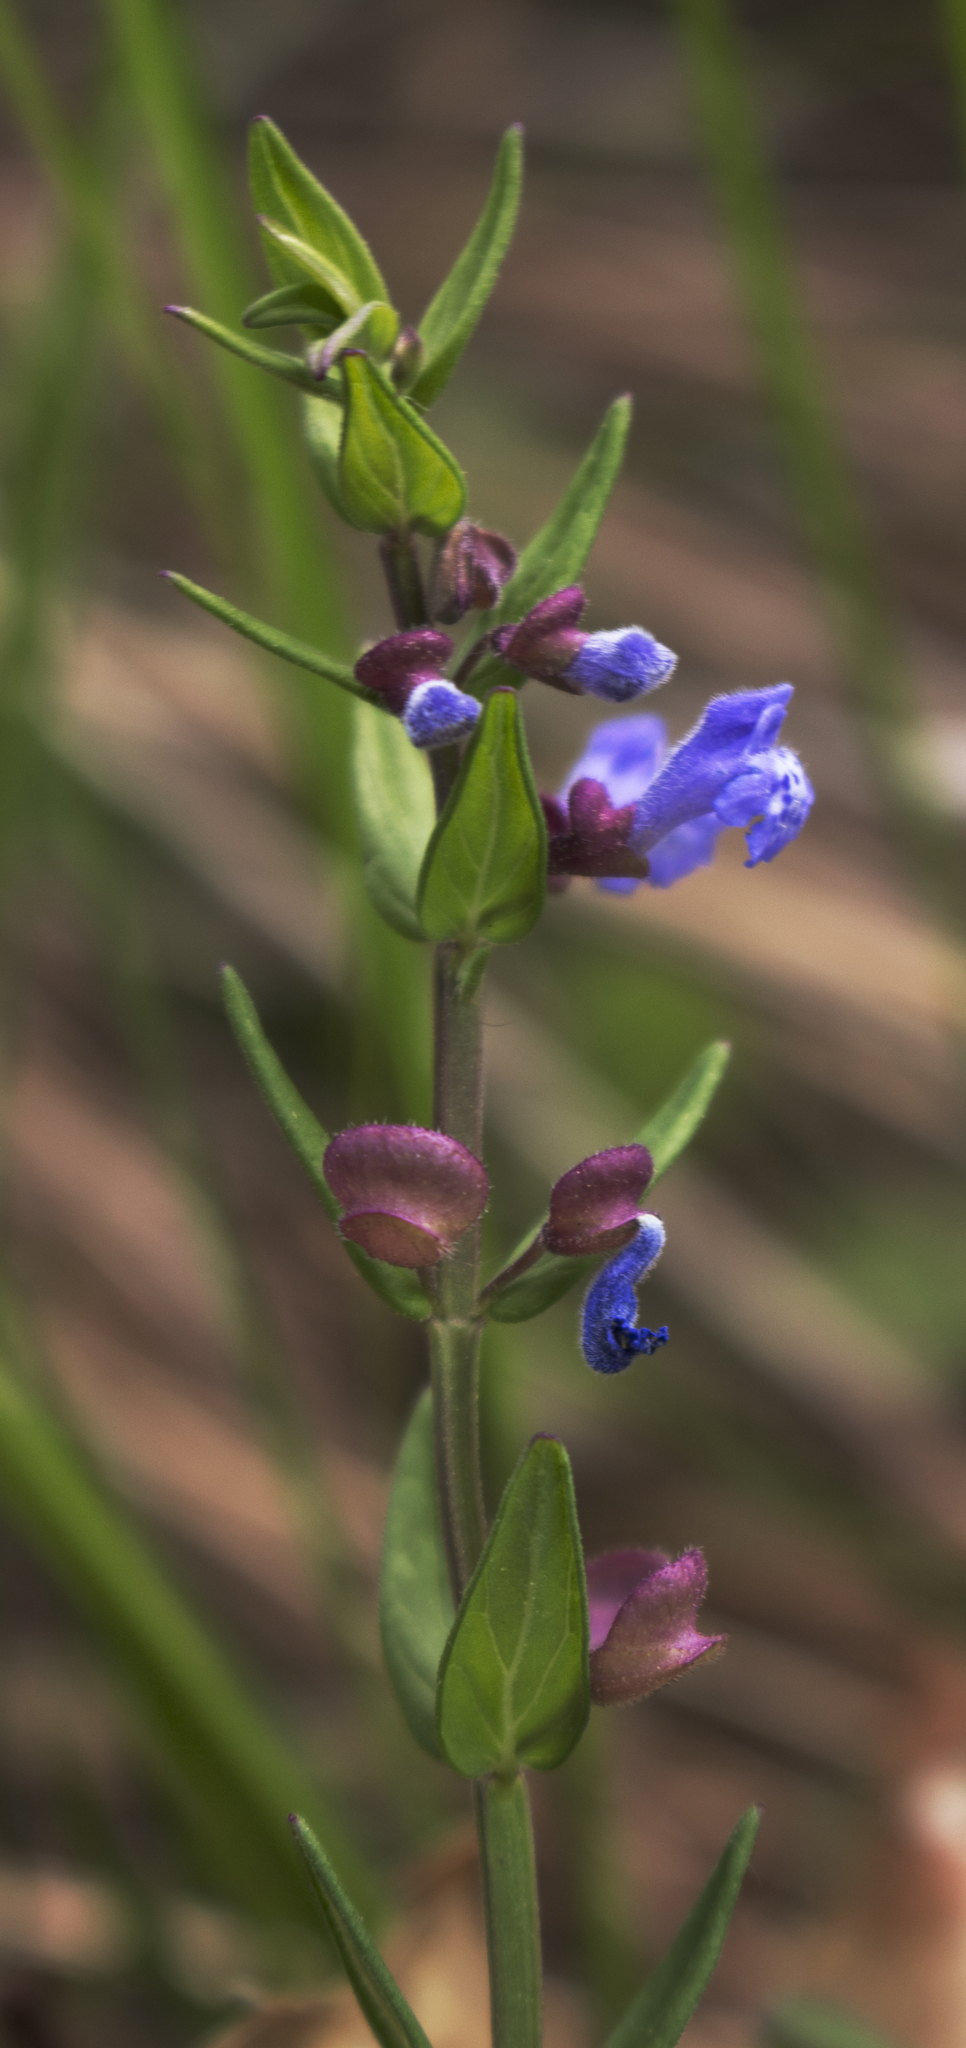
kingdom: Plantae
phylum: Tracheophyta
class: Magnoliopsida
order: Lamiales
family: Lamiaceae
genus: Scutellaria
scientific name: Scutellaria parvula
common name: Little scullcap
